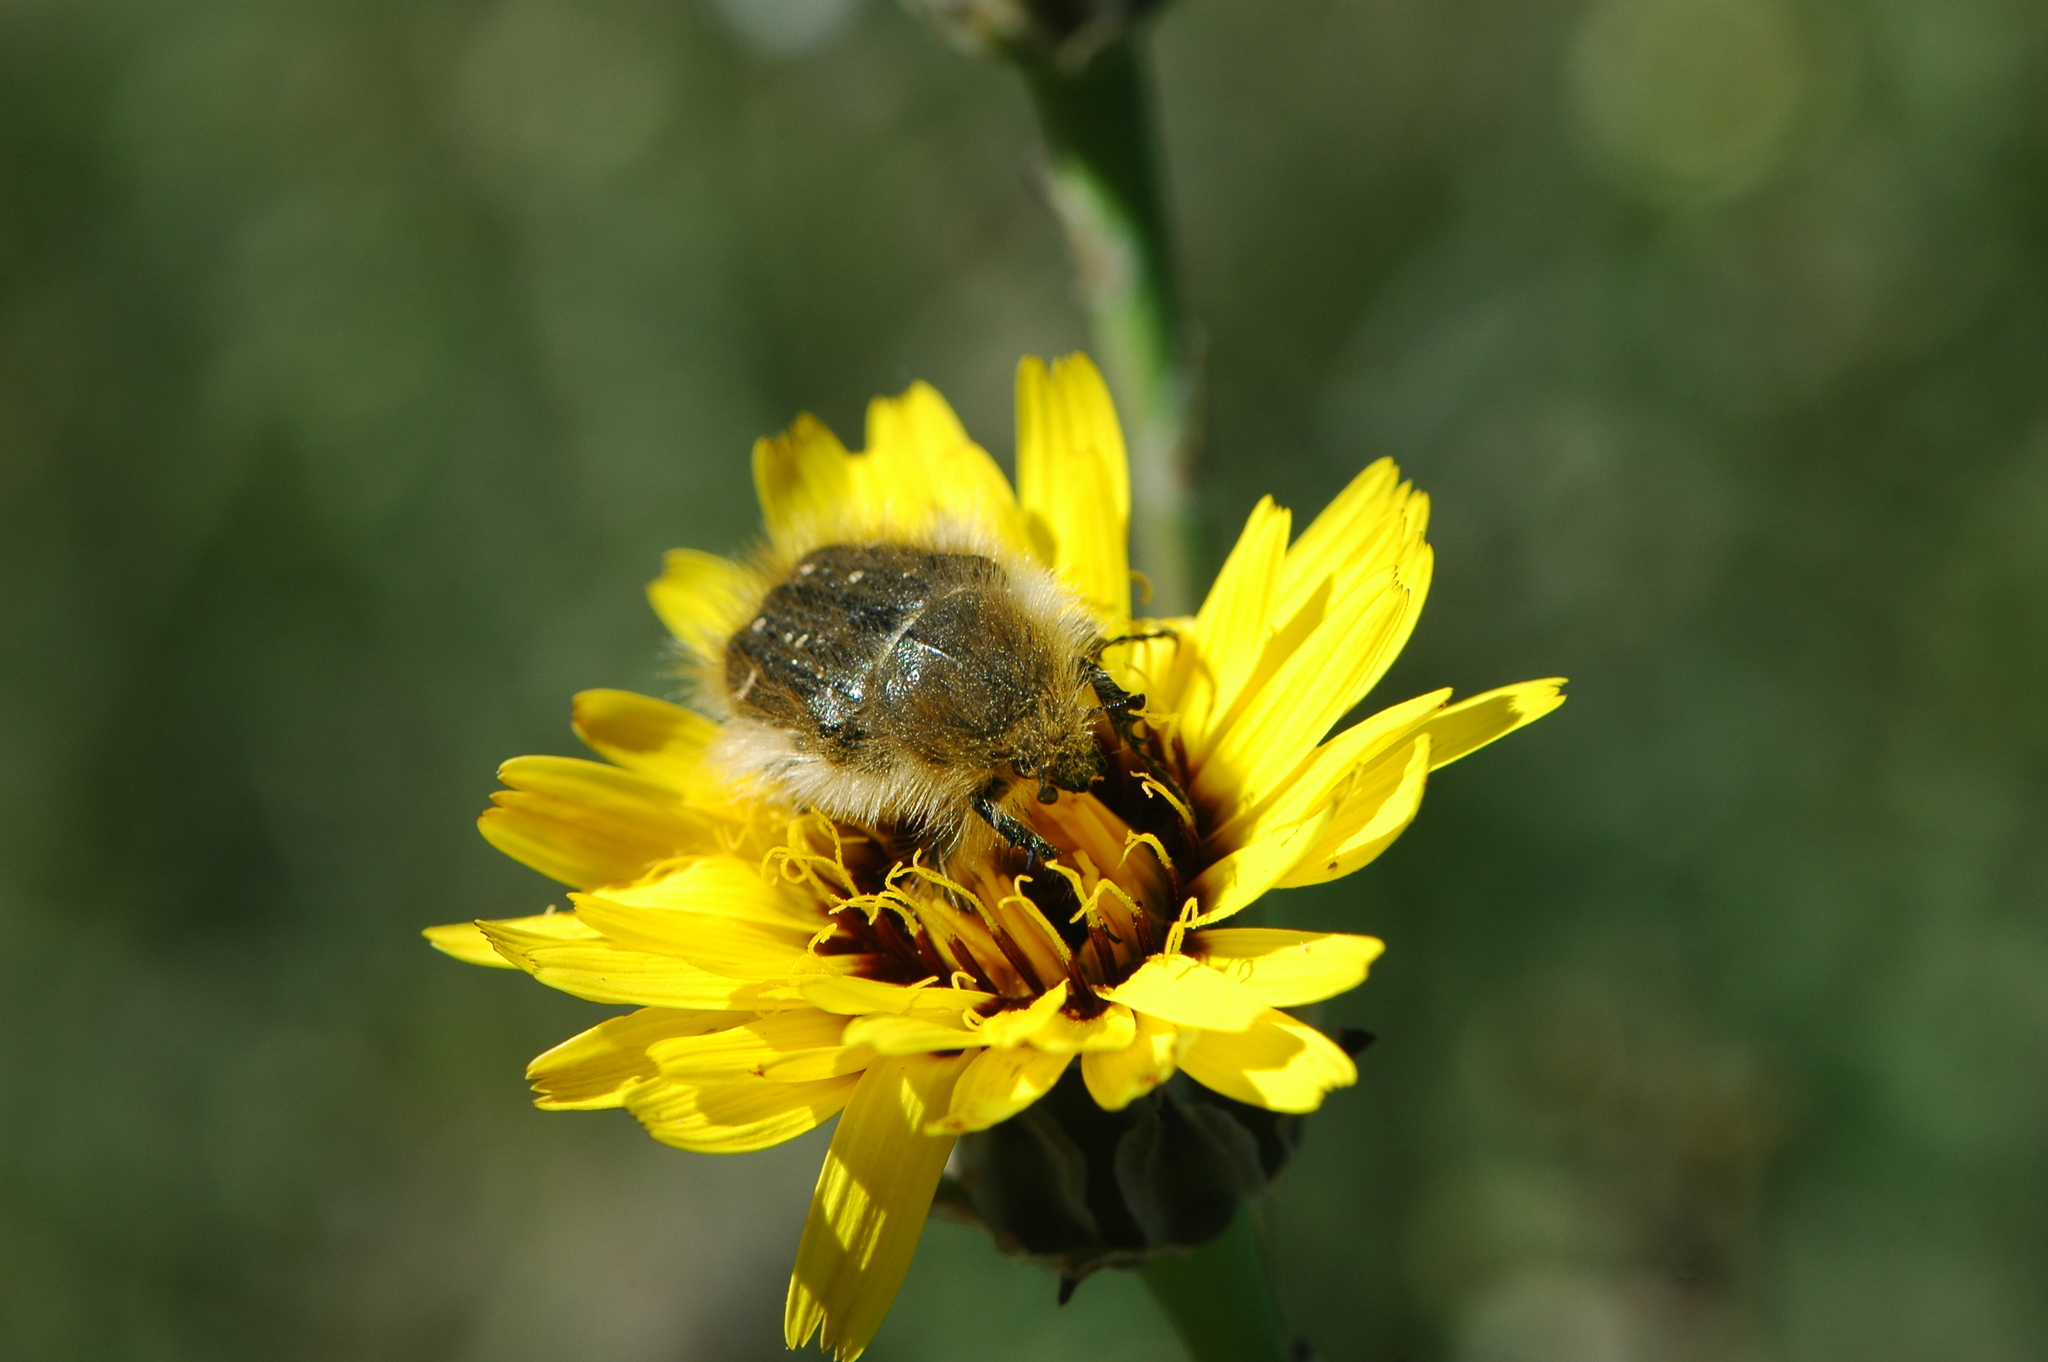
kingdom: Animalia
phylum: Arthropoda
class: Insecta
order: Coleoptera
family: Scarabaeidae
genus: Tropinota
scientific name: Tropinota squalida
